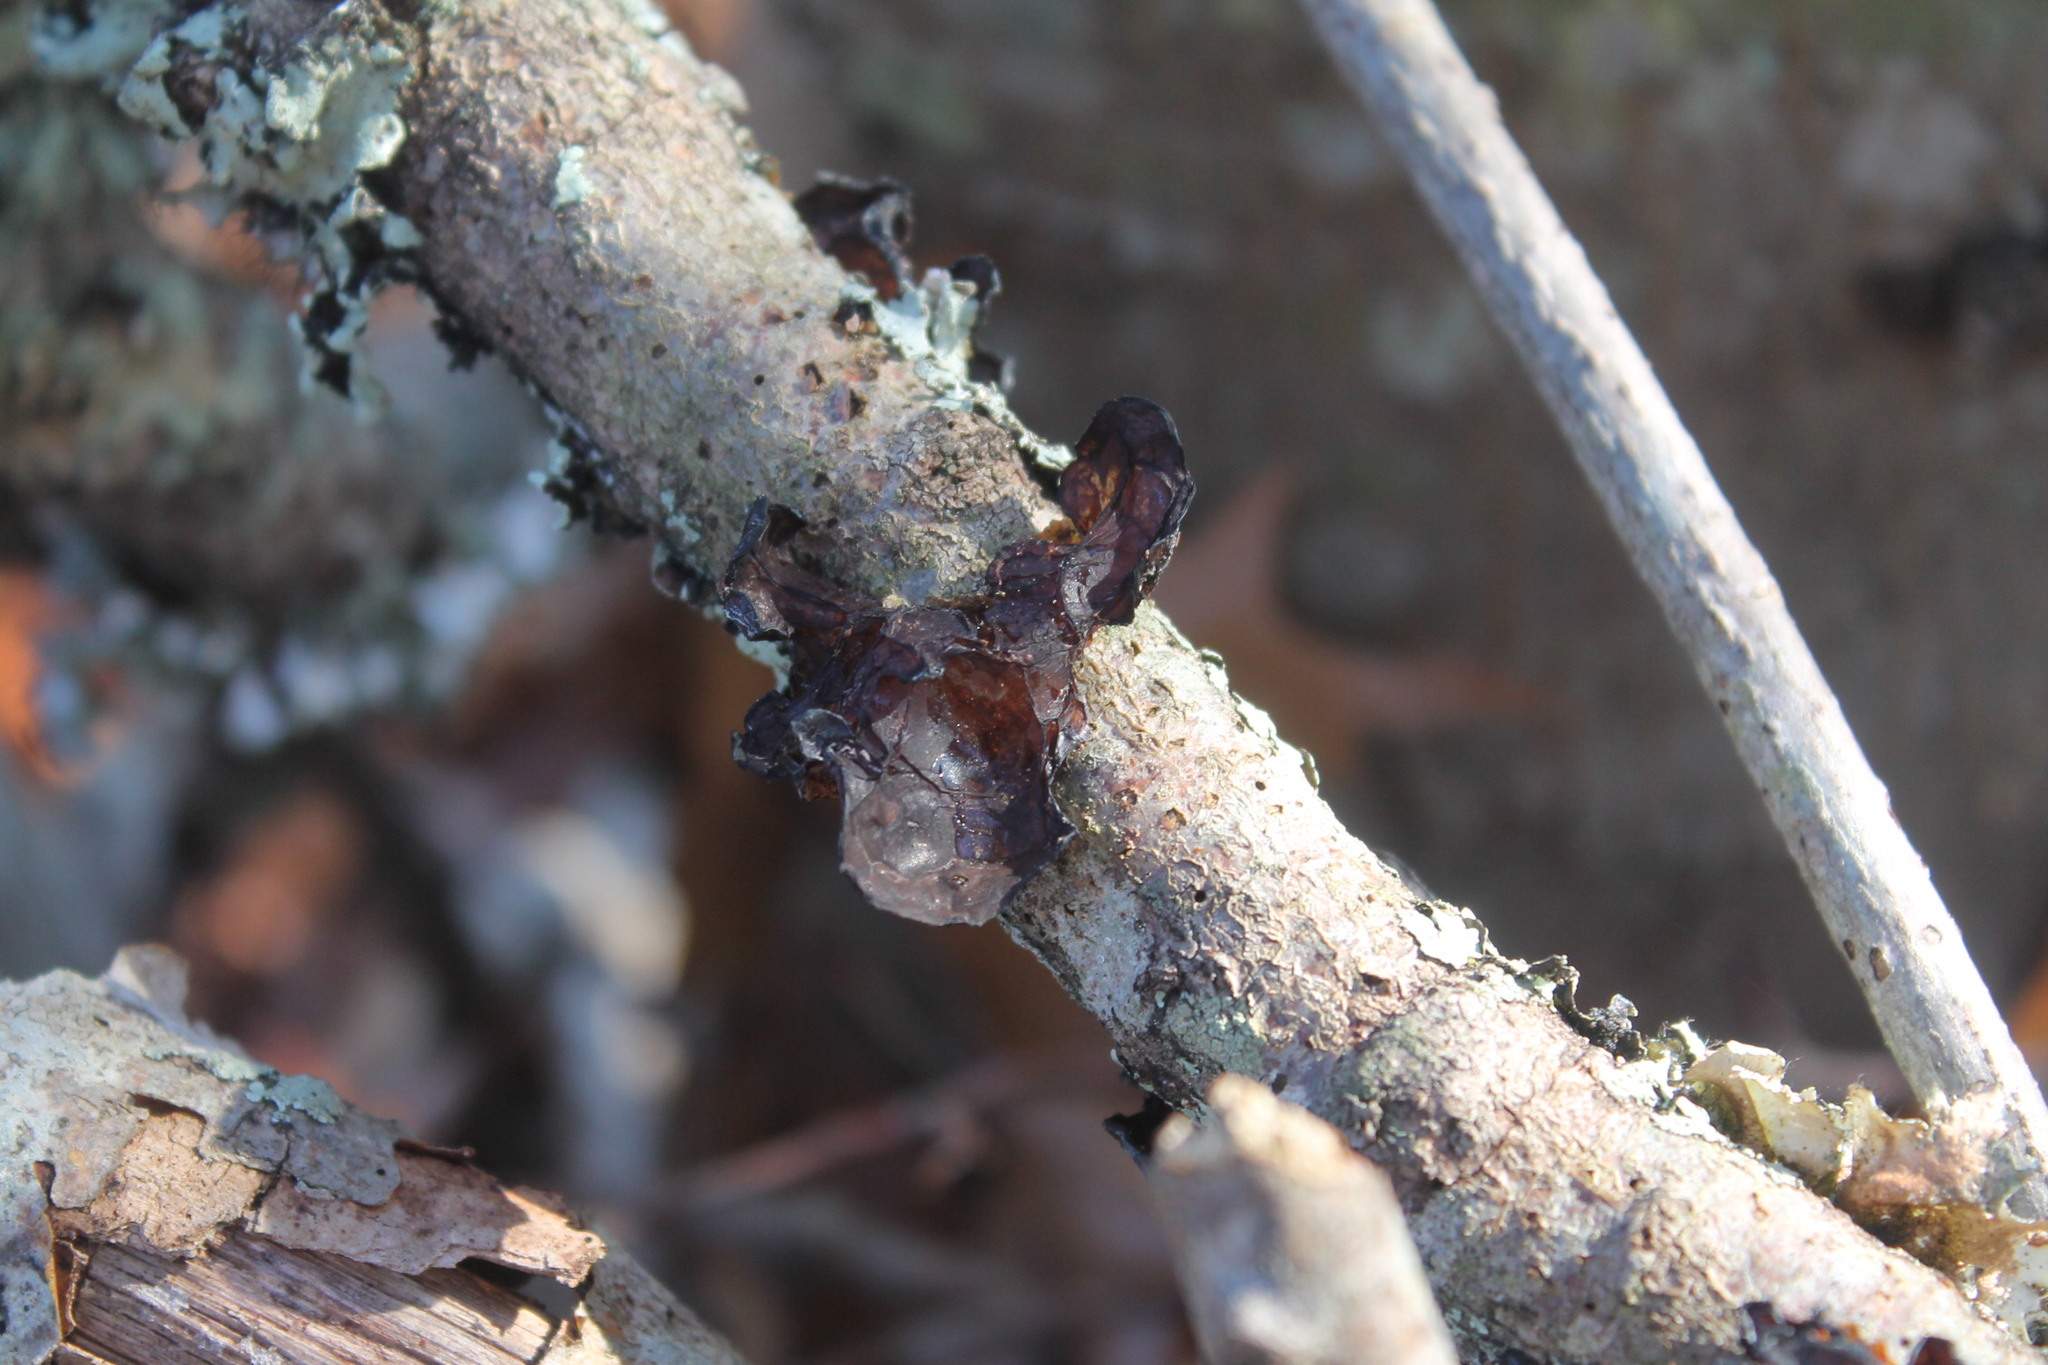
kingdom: Fungi
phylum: Basidiomycota
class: Agaricomycetes
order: Auriculariales
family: Auriculariaceae
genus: Exidia
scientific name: Exidia
